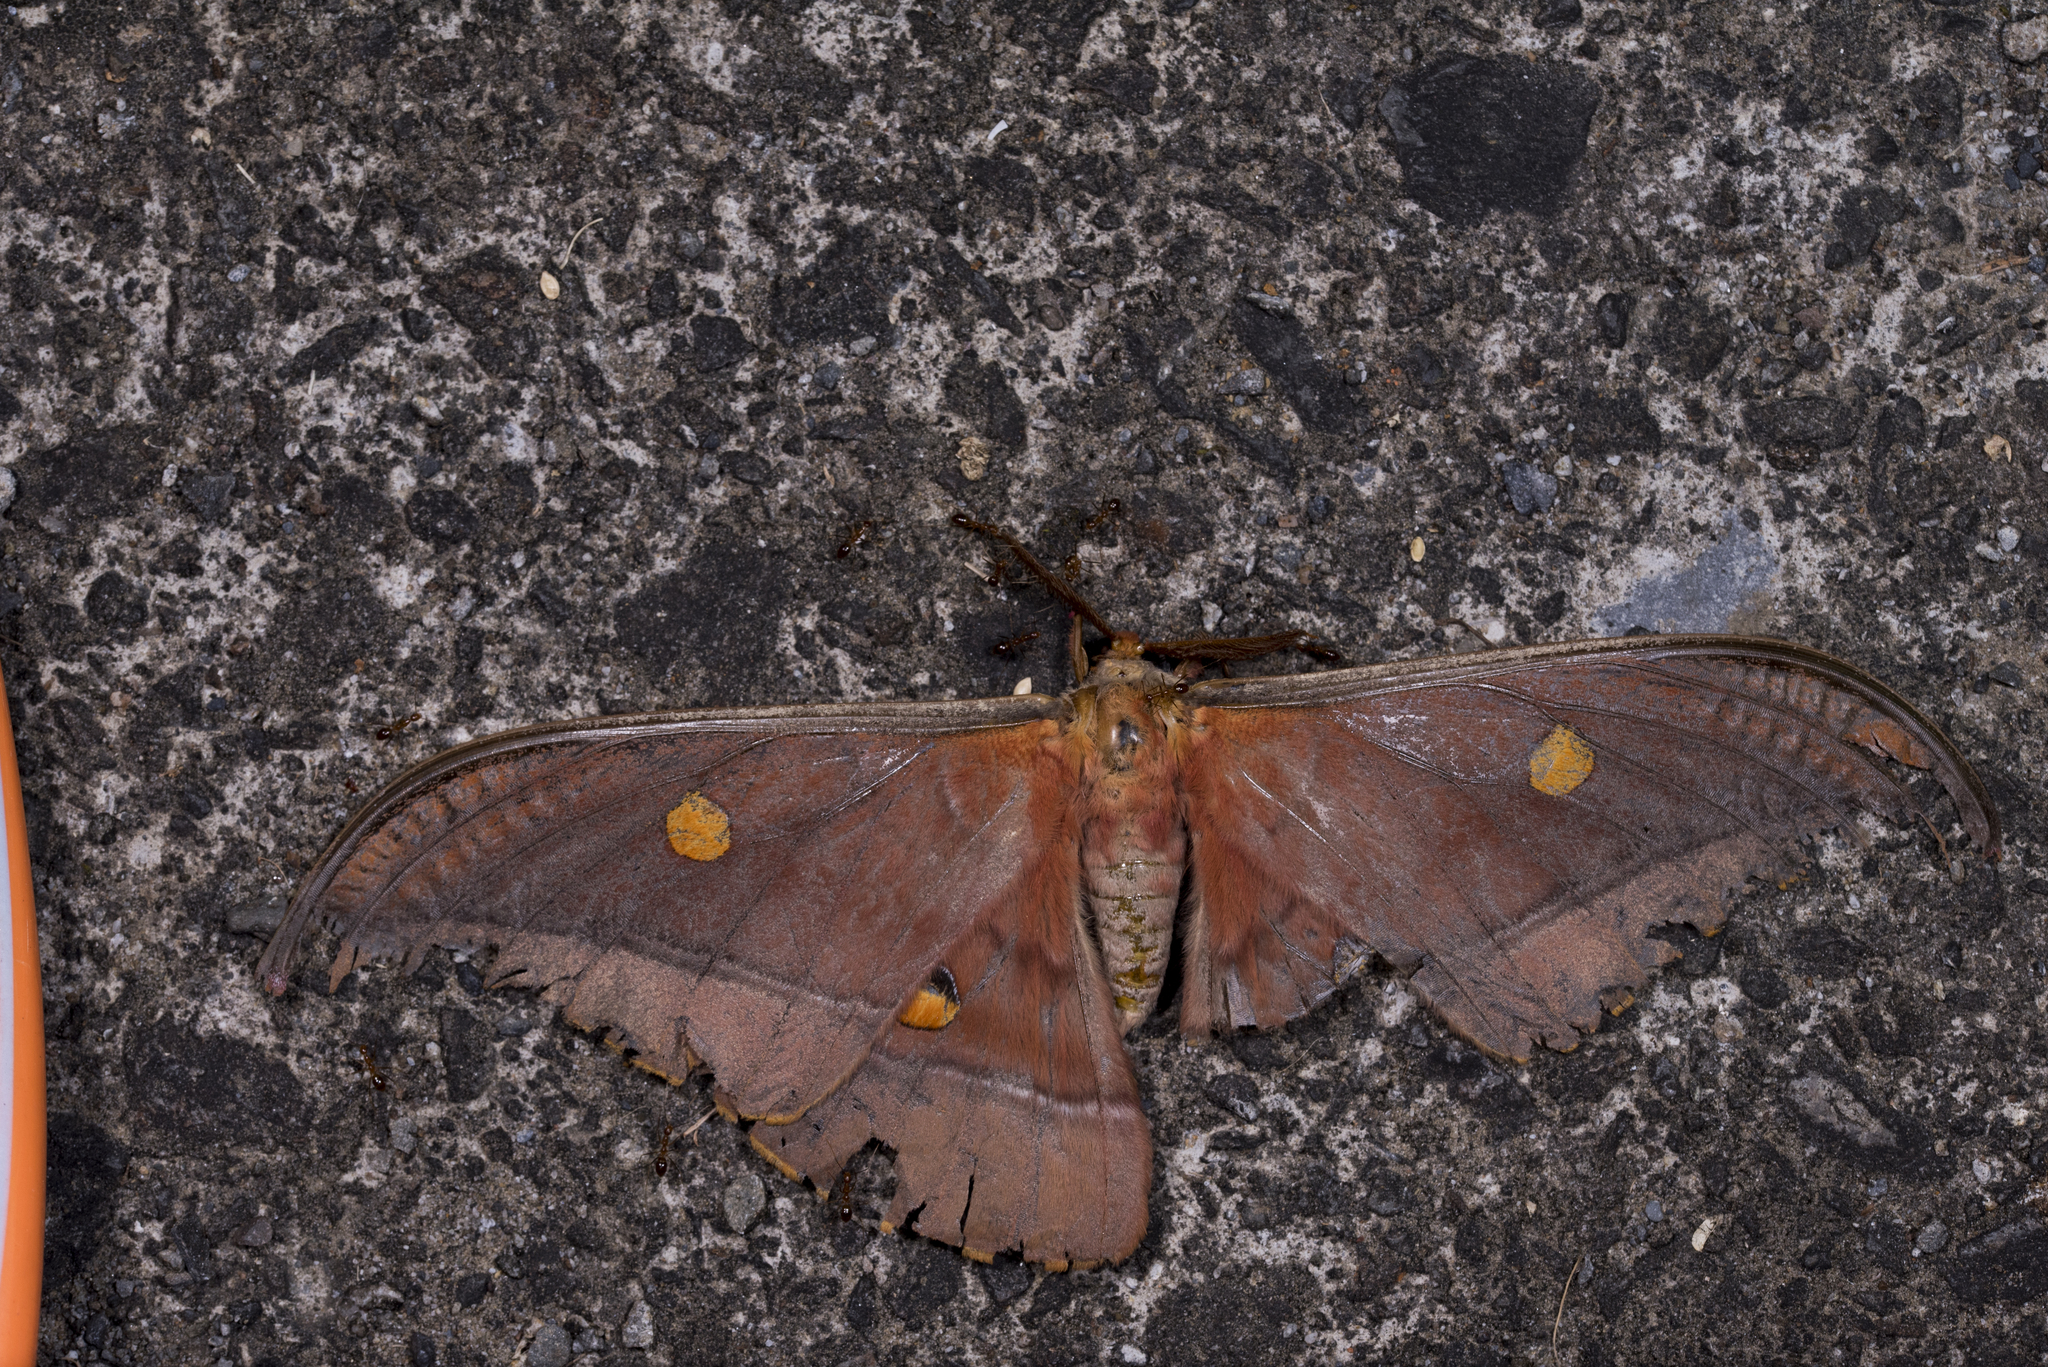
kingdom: Animalia
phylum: Arthropoda
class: Insecta
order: Lepidoptera
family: Saturniidae
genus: Antheraea
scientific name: Antheraea formosana
